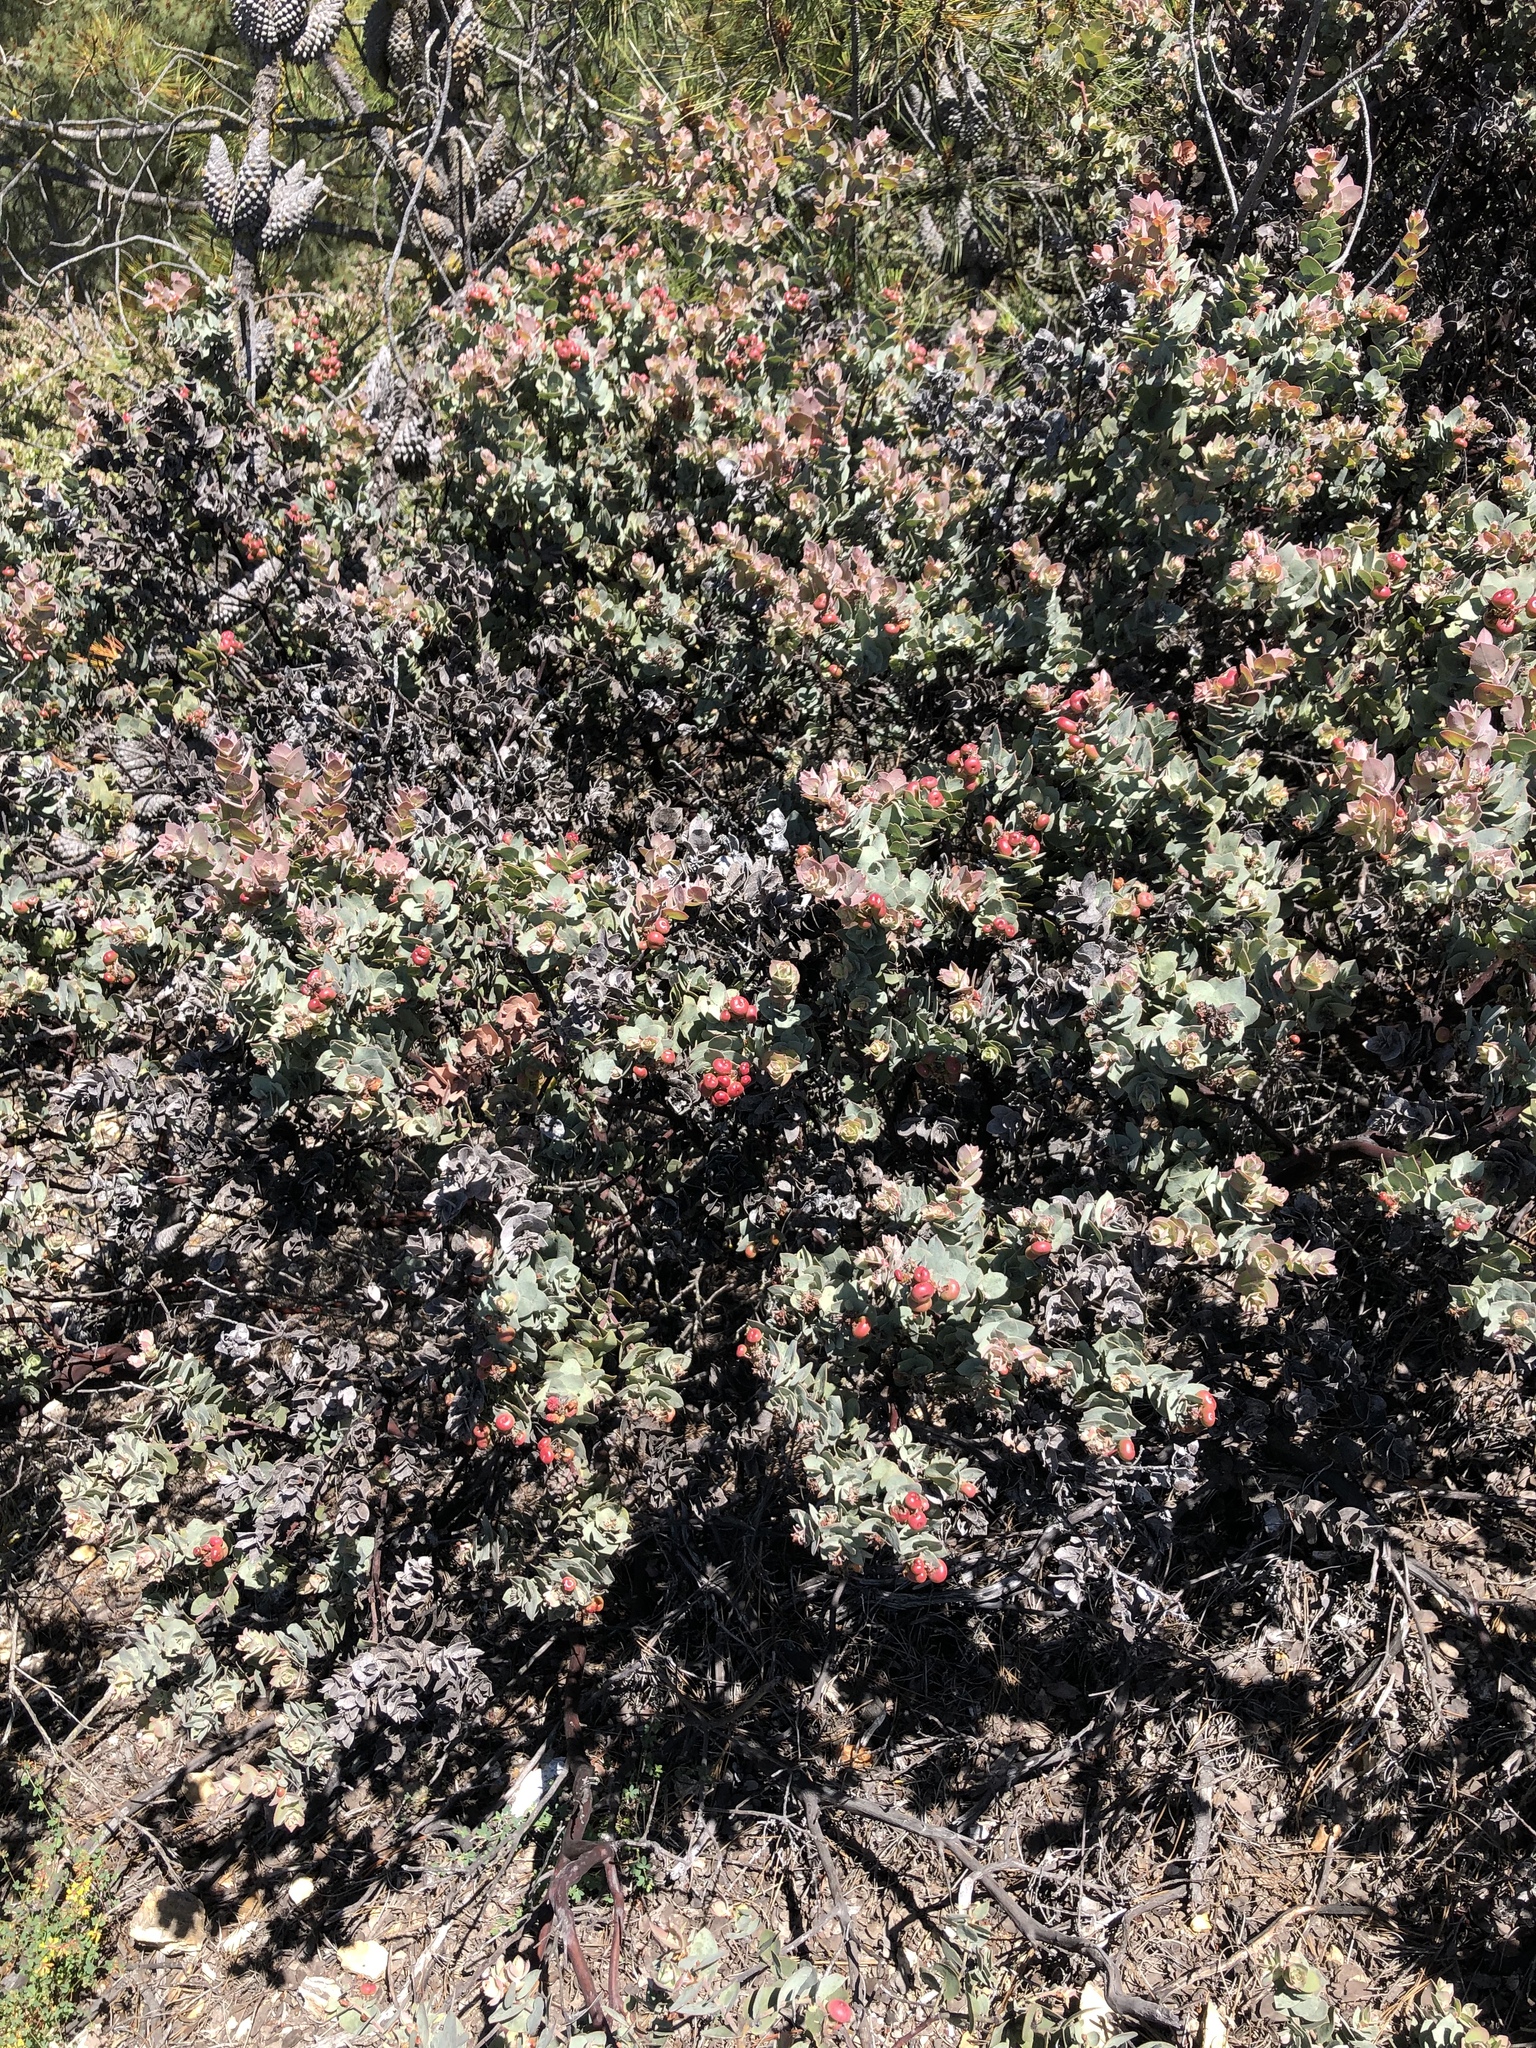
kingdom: Plantae
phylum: Tracheophyta
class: Magnoliopsida
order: Ericales
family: Ericaceae
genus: Arctostaphylos
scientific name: Arctostaphylos luciana
